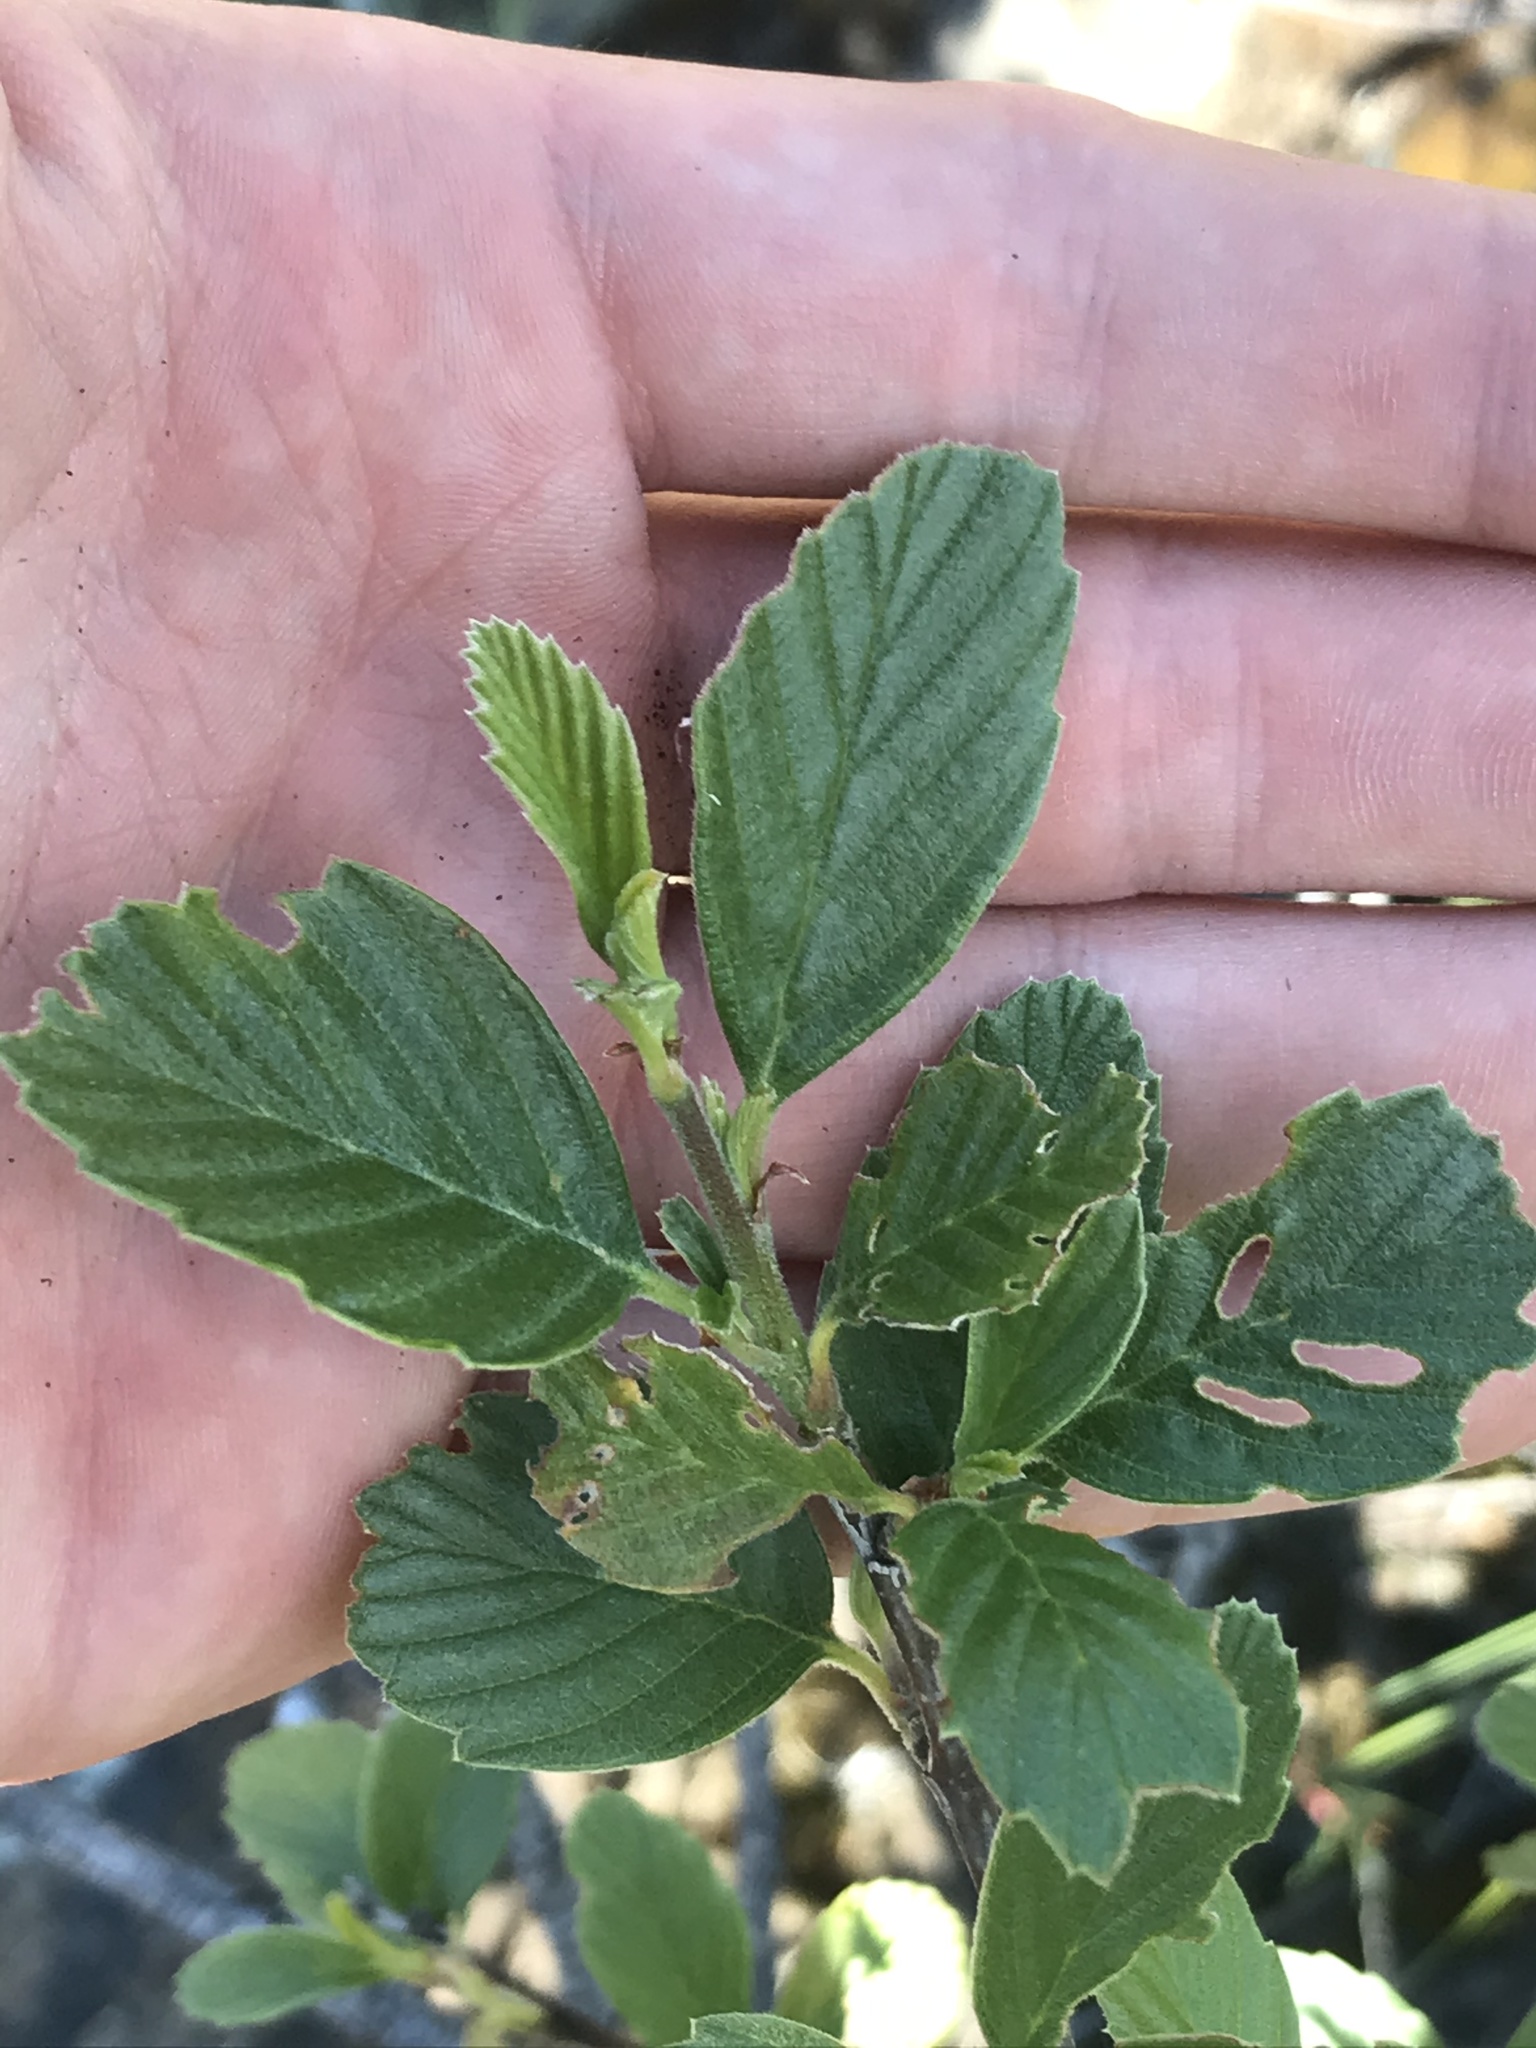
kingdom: Plantae
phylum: Tracheophyta
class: Magnoliopsida
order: Rosales
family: Rosaceae
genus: Cercocarpus
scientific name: Cercocarpus betuloides
